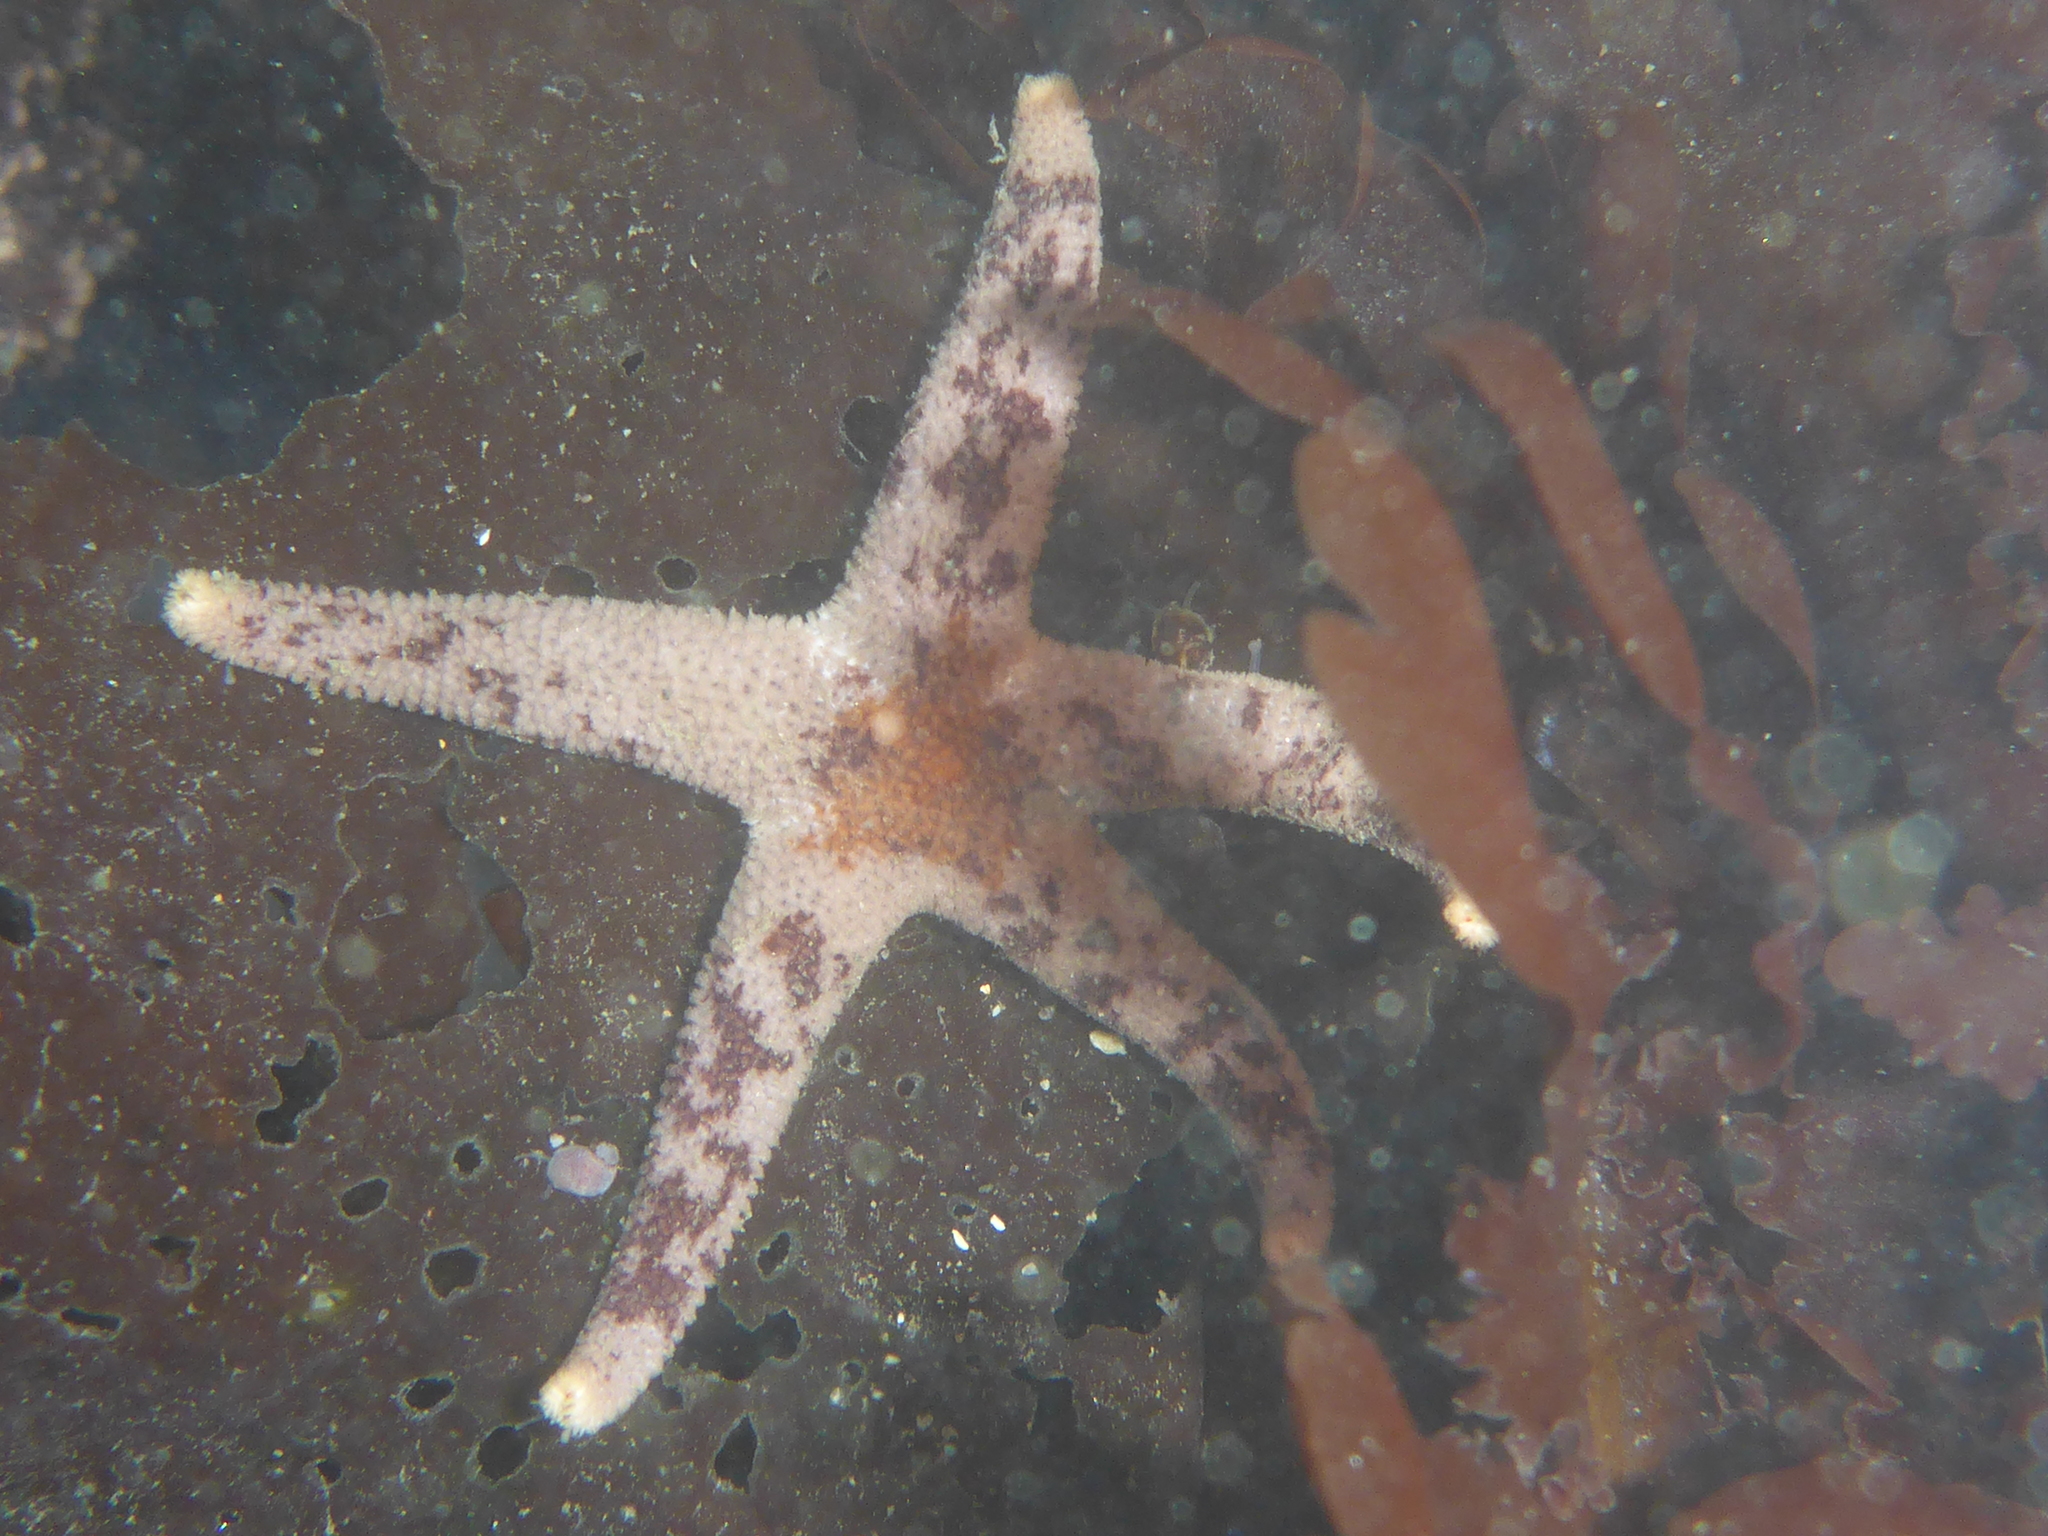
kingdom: Animalia
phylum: Echinodermata
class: Asteroidea
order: Spinulosida
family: Echinasteridae
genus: Henricia
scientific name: Henricia pumila
